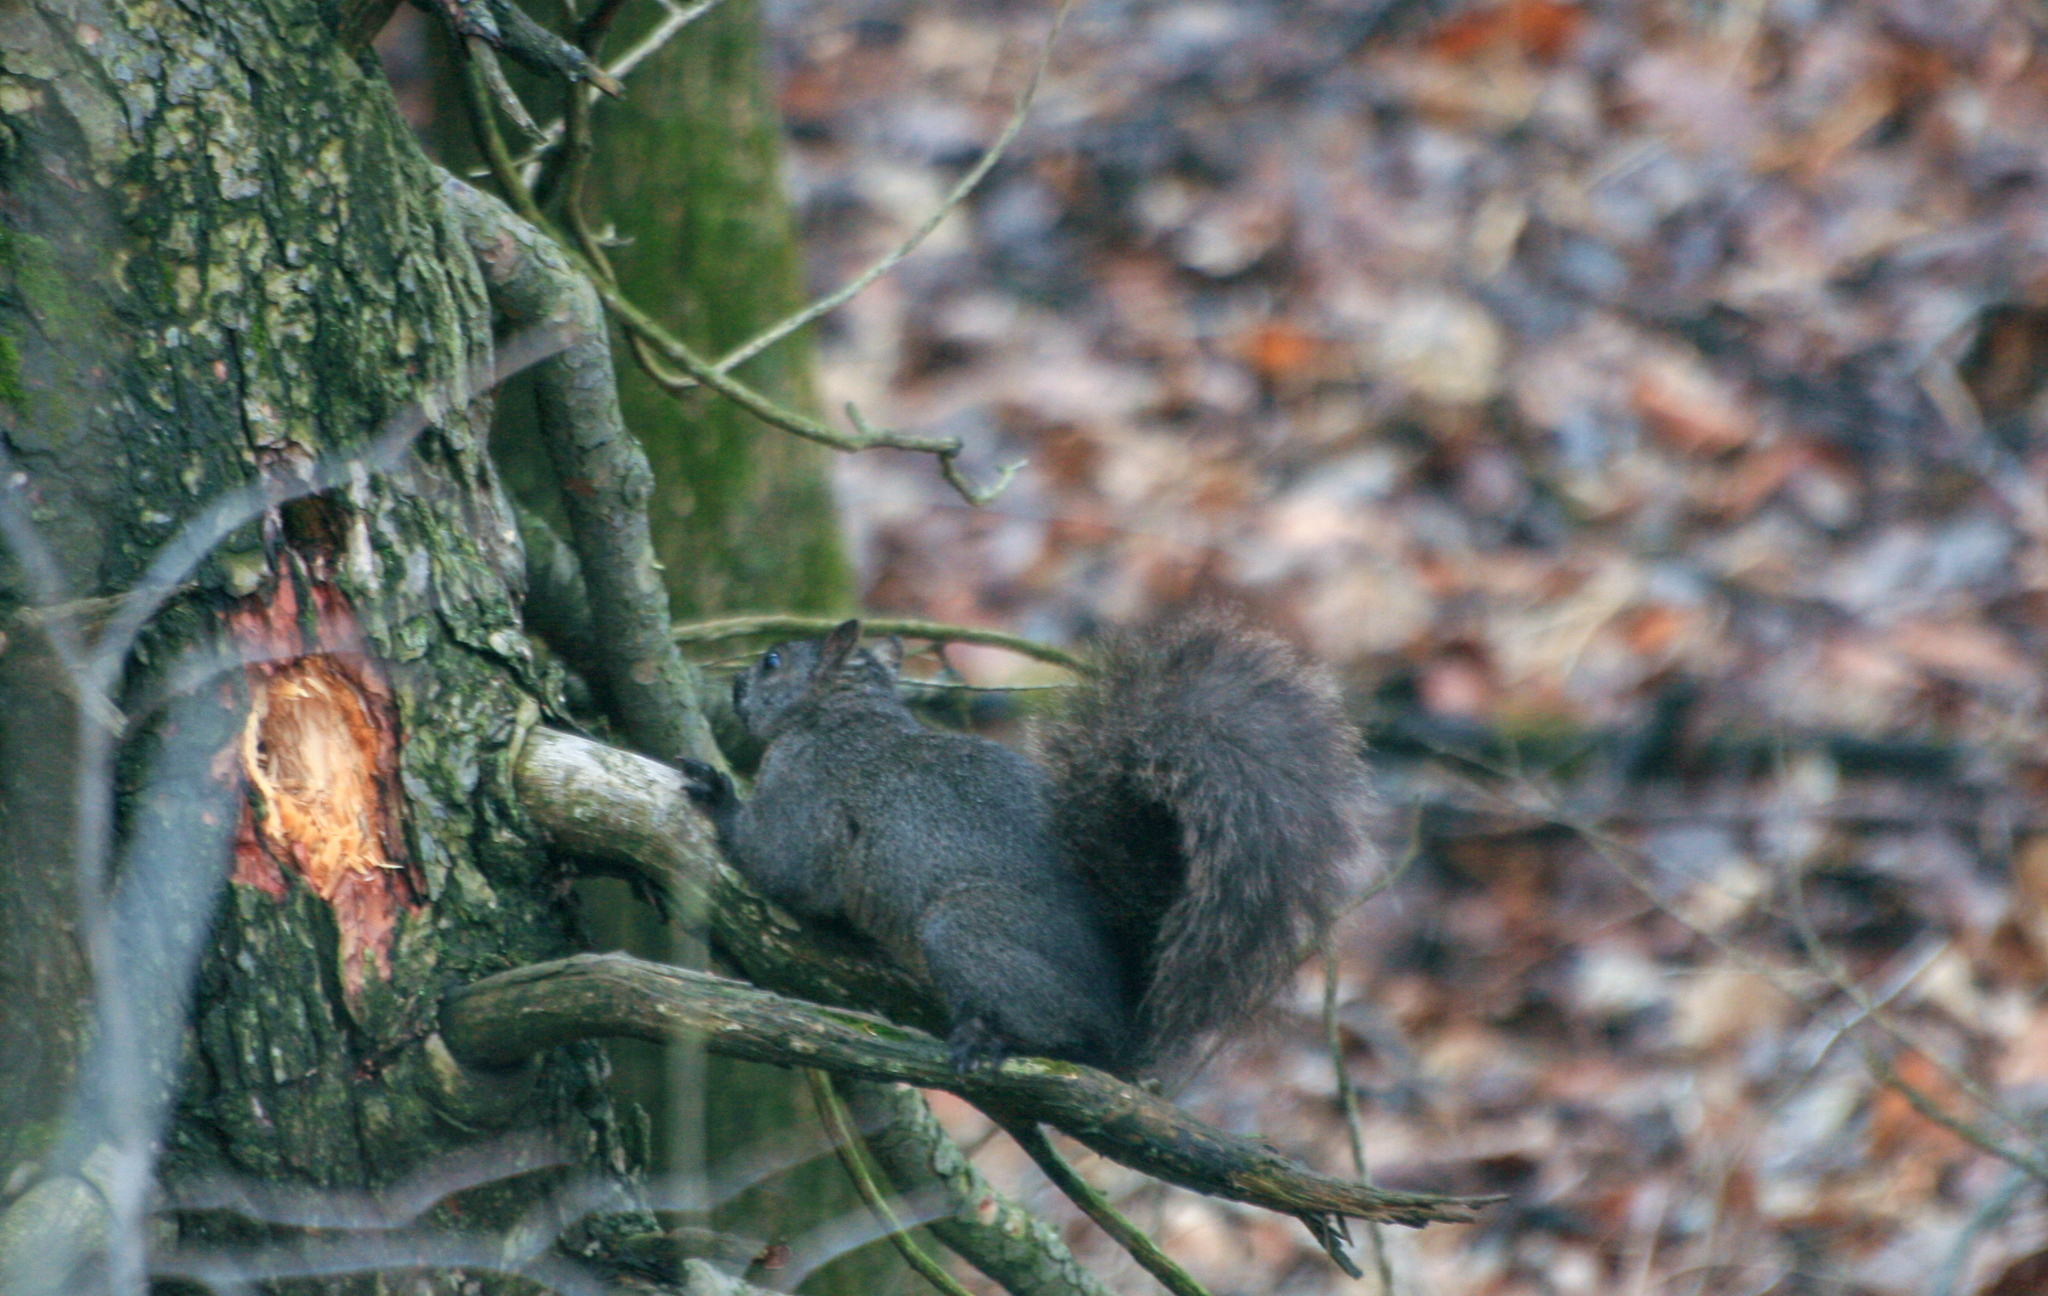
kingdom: Animalia
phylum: Chordata
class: Mammalia
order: Rodentia
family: Sciuridae
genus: Sciurus
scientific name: Sciurus carolinensis
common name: Eastern gray squirrel
